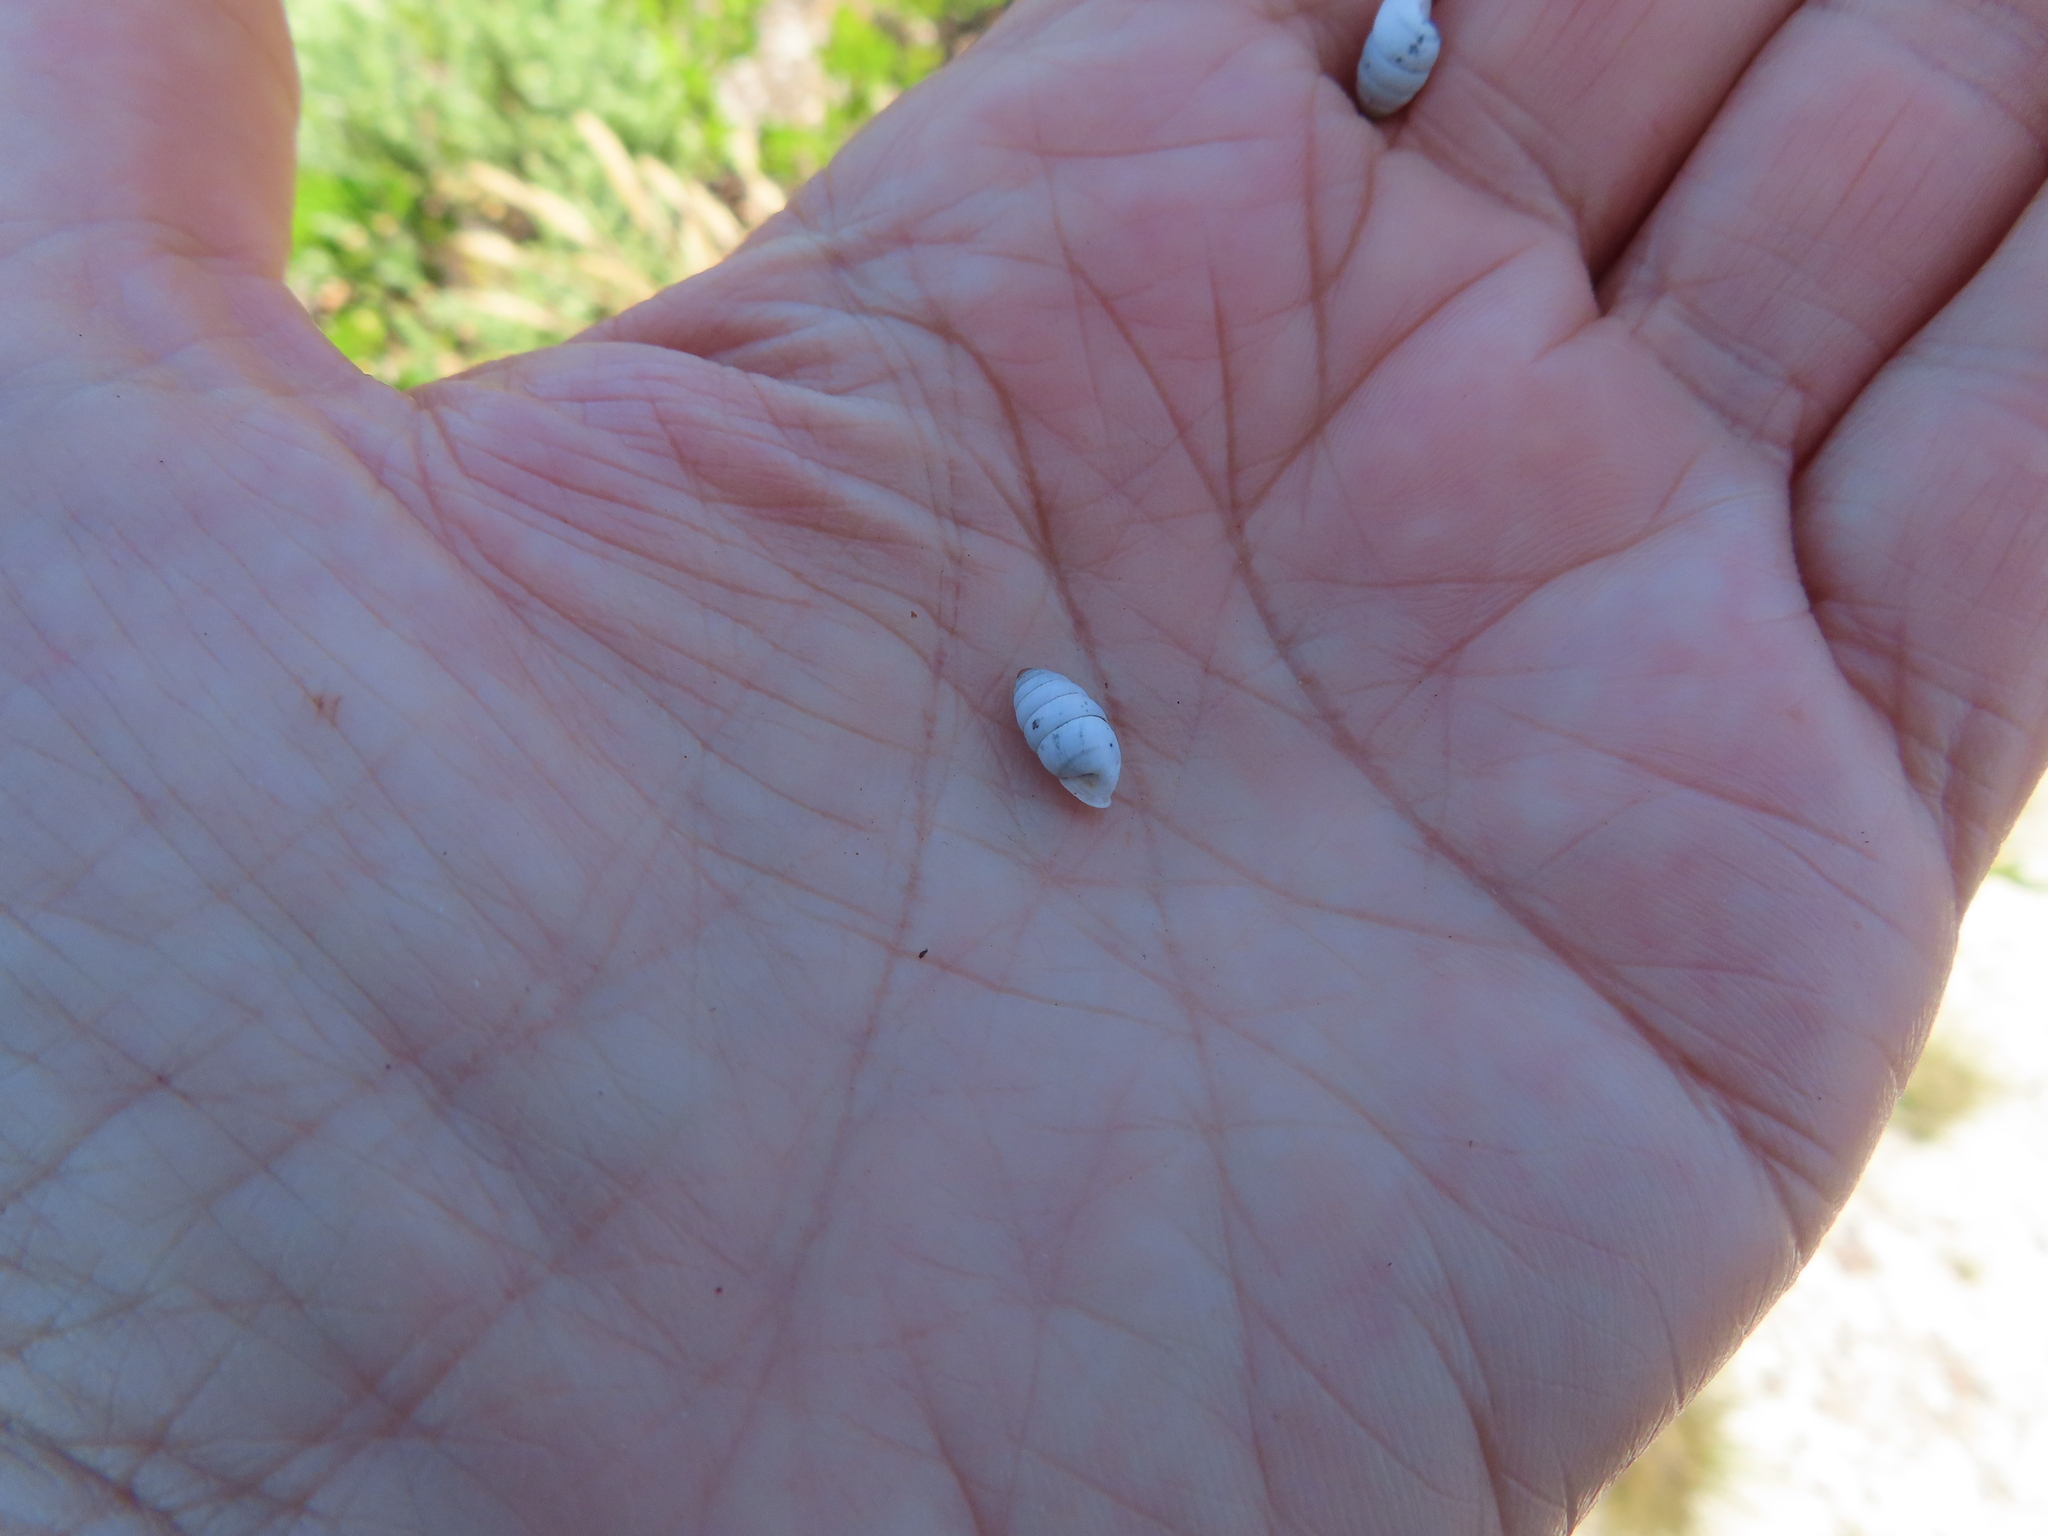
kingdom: Animalia
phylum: Mollusca
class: Gastropoda
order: Stylommatophora
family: Fauxulidae
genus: Fauxulus
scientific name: Fauxulus capensis
